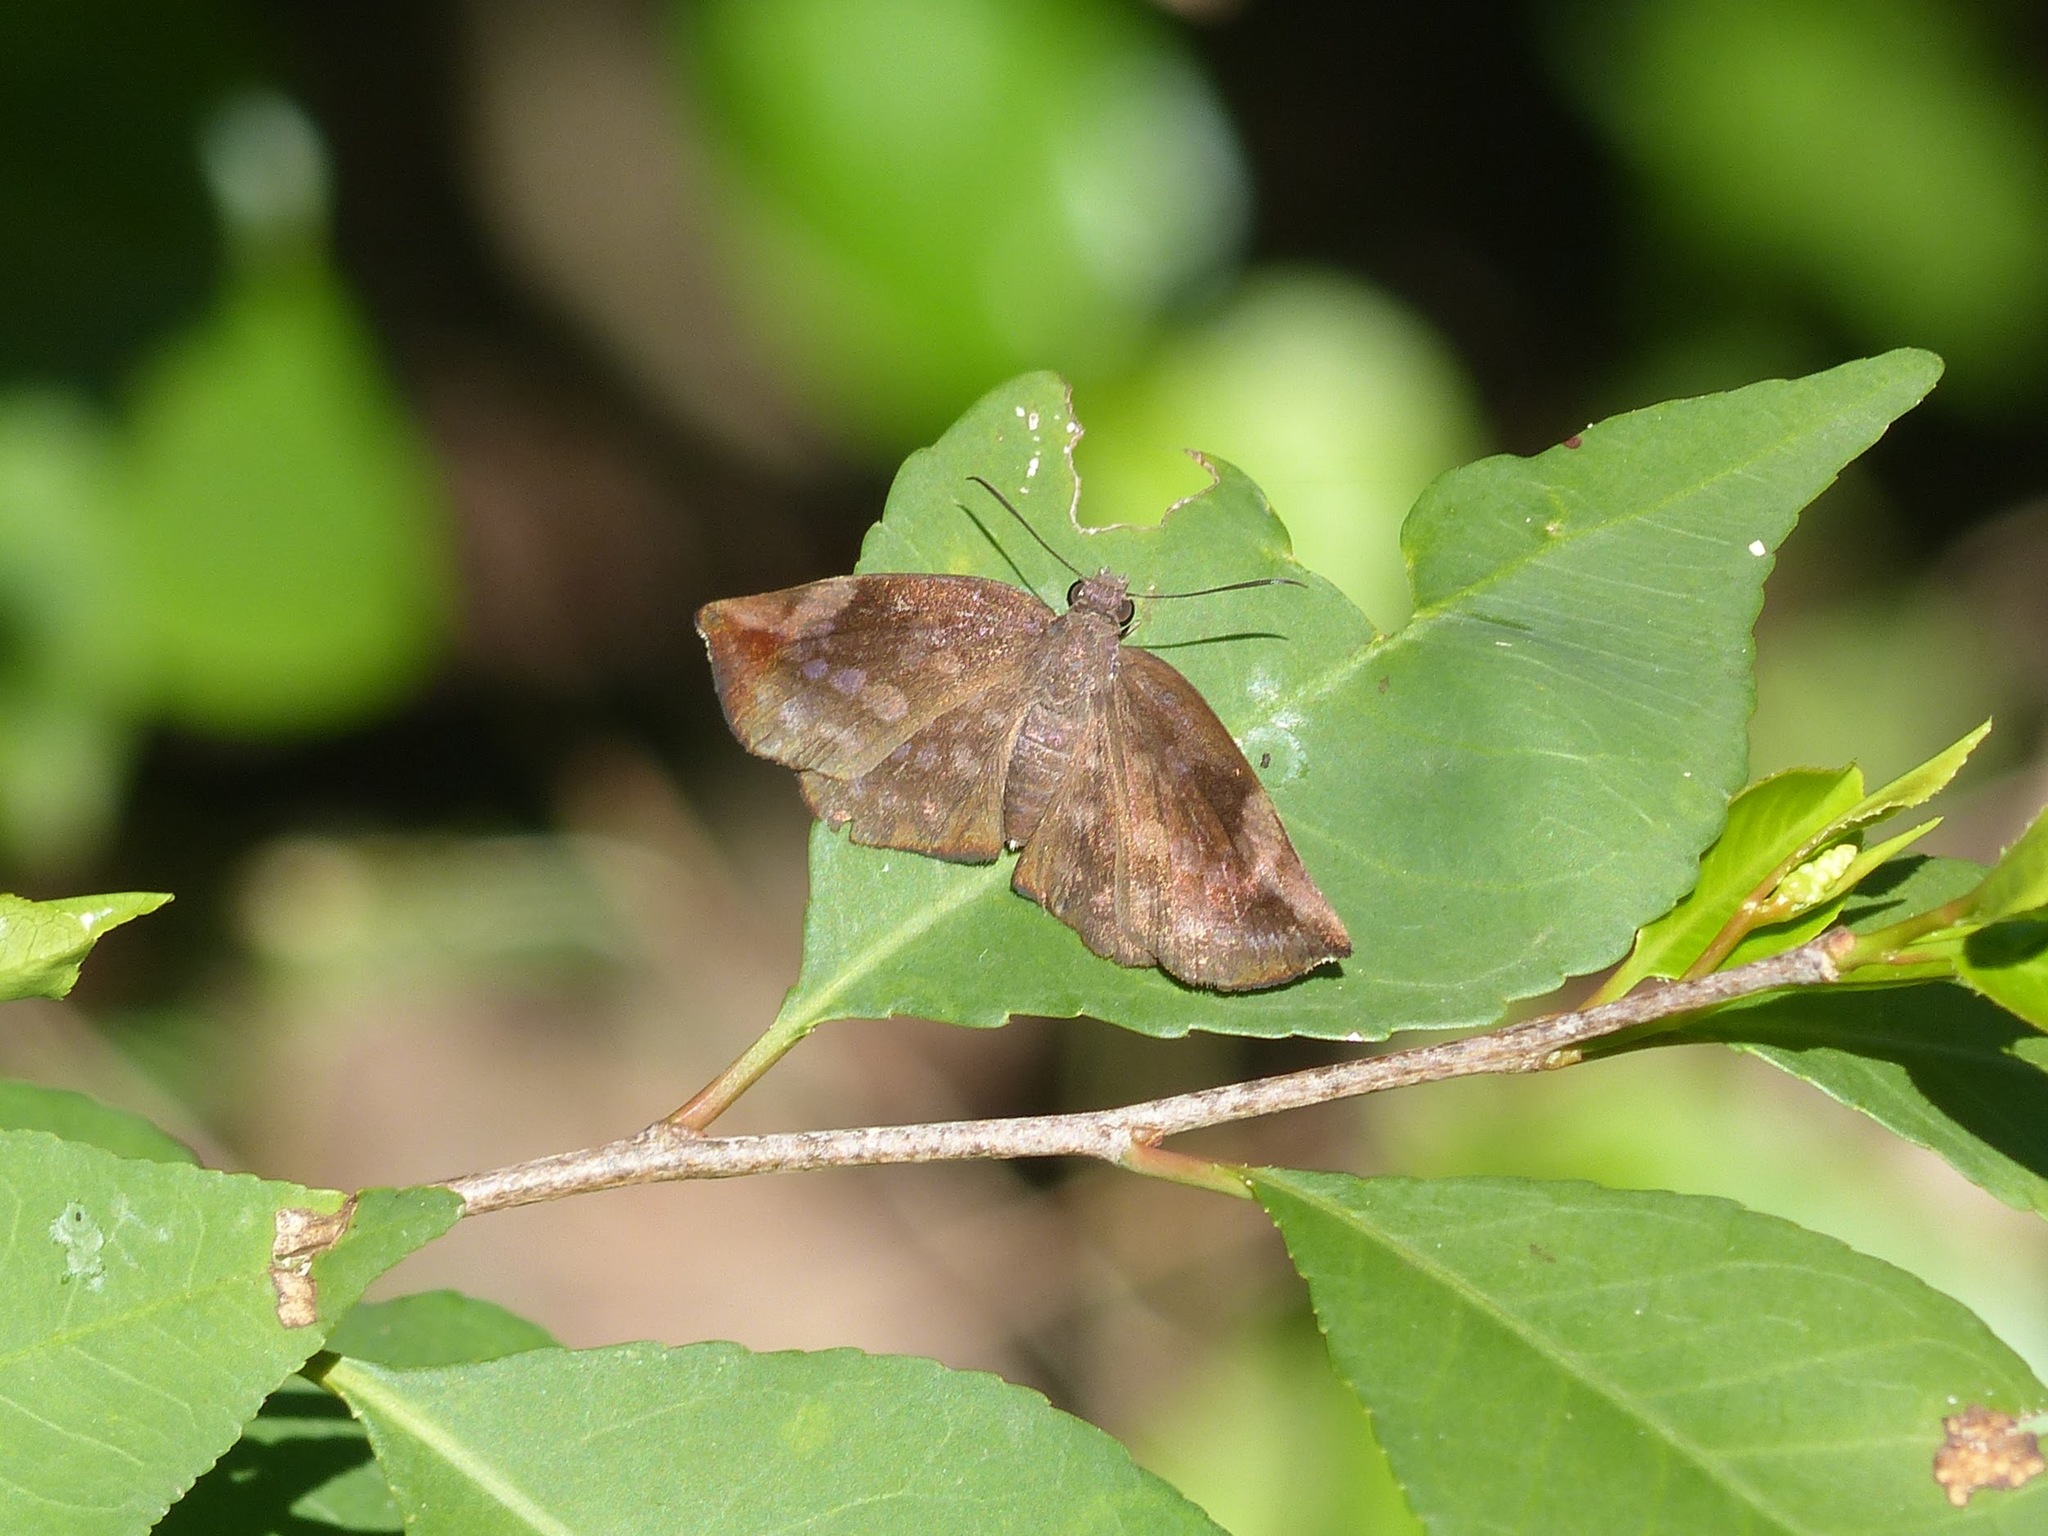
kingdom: Animalia
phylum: Arthropoda
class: Insecta
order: Lepidoptera
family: Hesperiidae
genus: Achlyodes
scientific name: Achlyodes thraso
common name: Sickle-winged skipper
